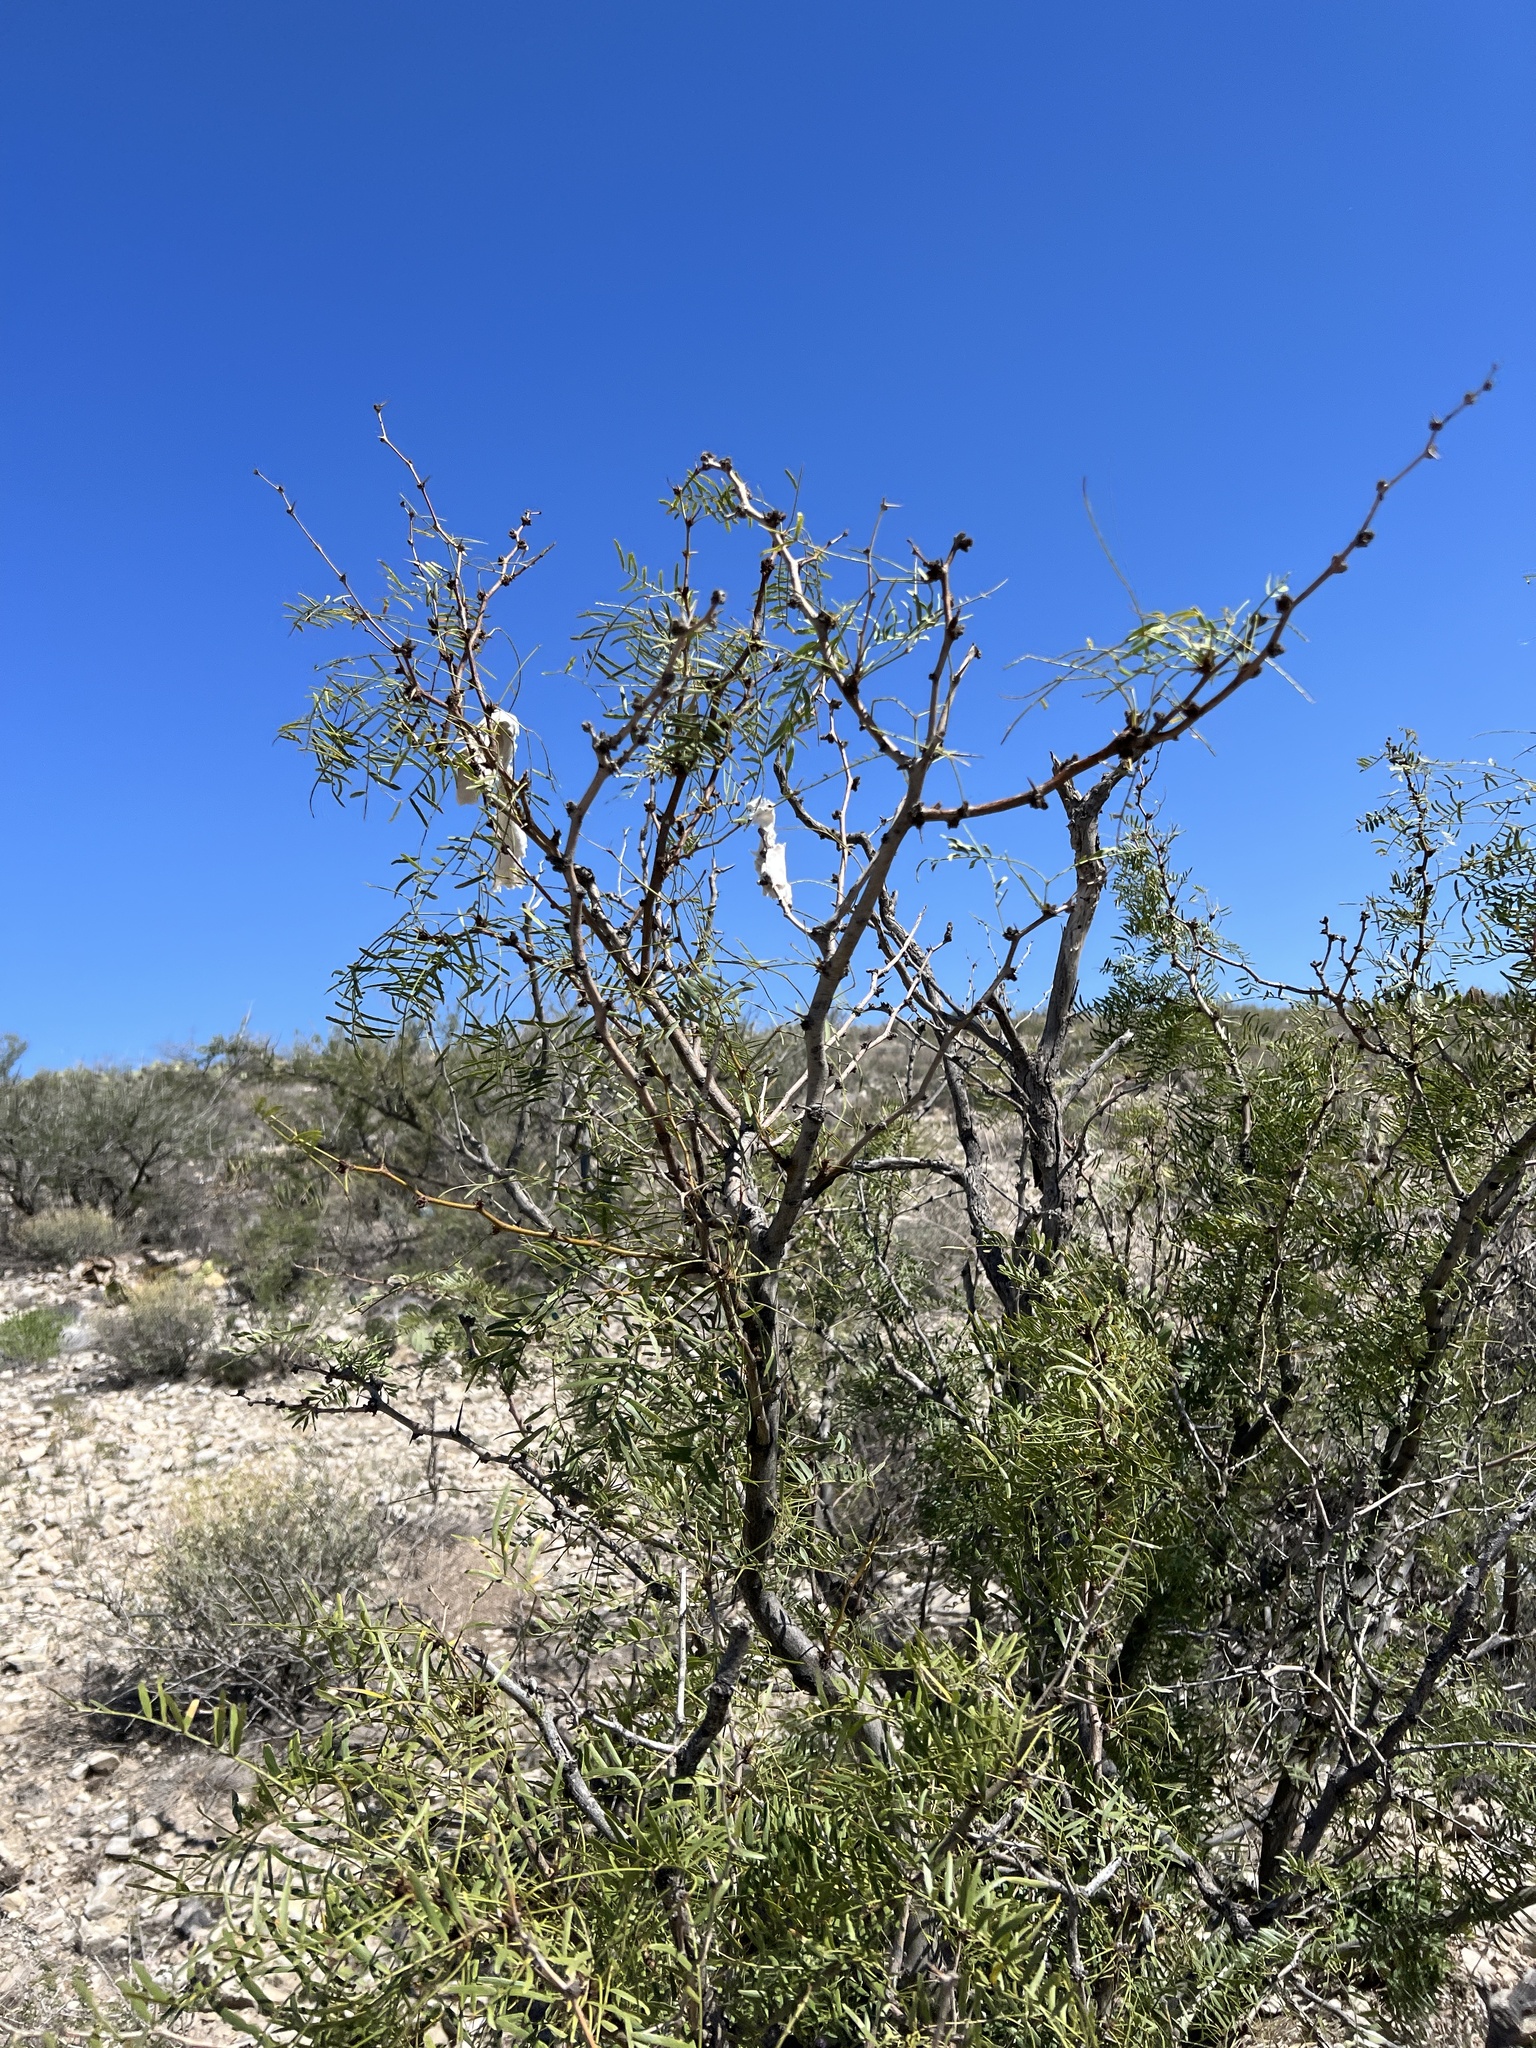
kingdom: Plantae
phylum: Tracheophyta
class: Magnoliopsida
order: Fabales
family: Fabaceae
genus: Prosopis
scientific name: Prosopis glandulosa
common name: Honey mesquite
